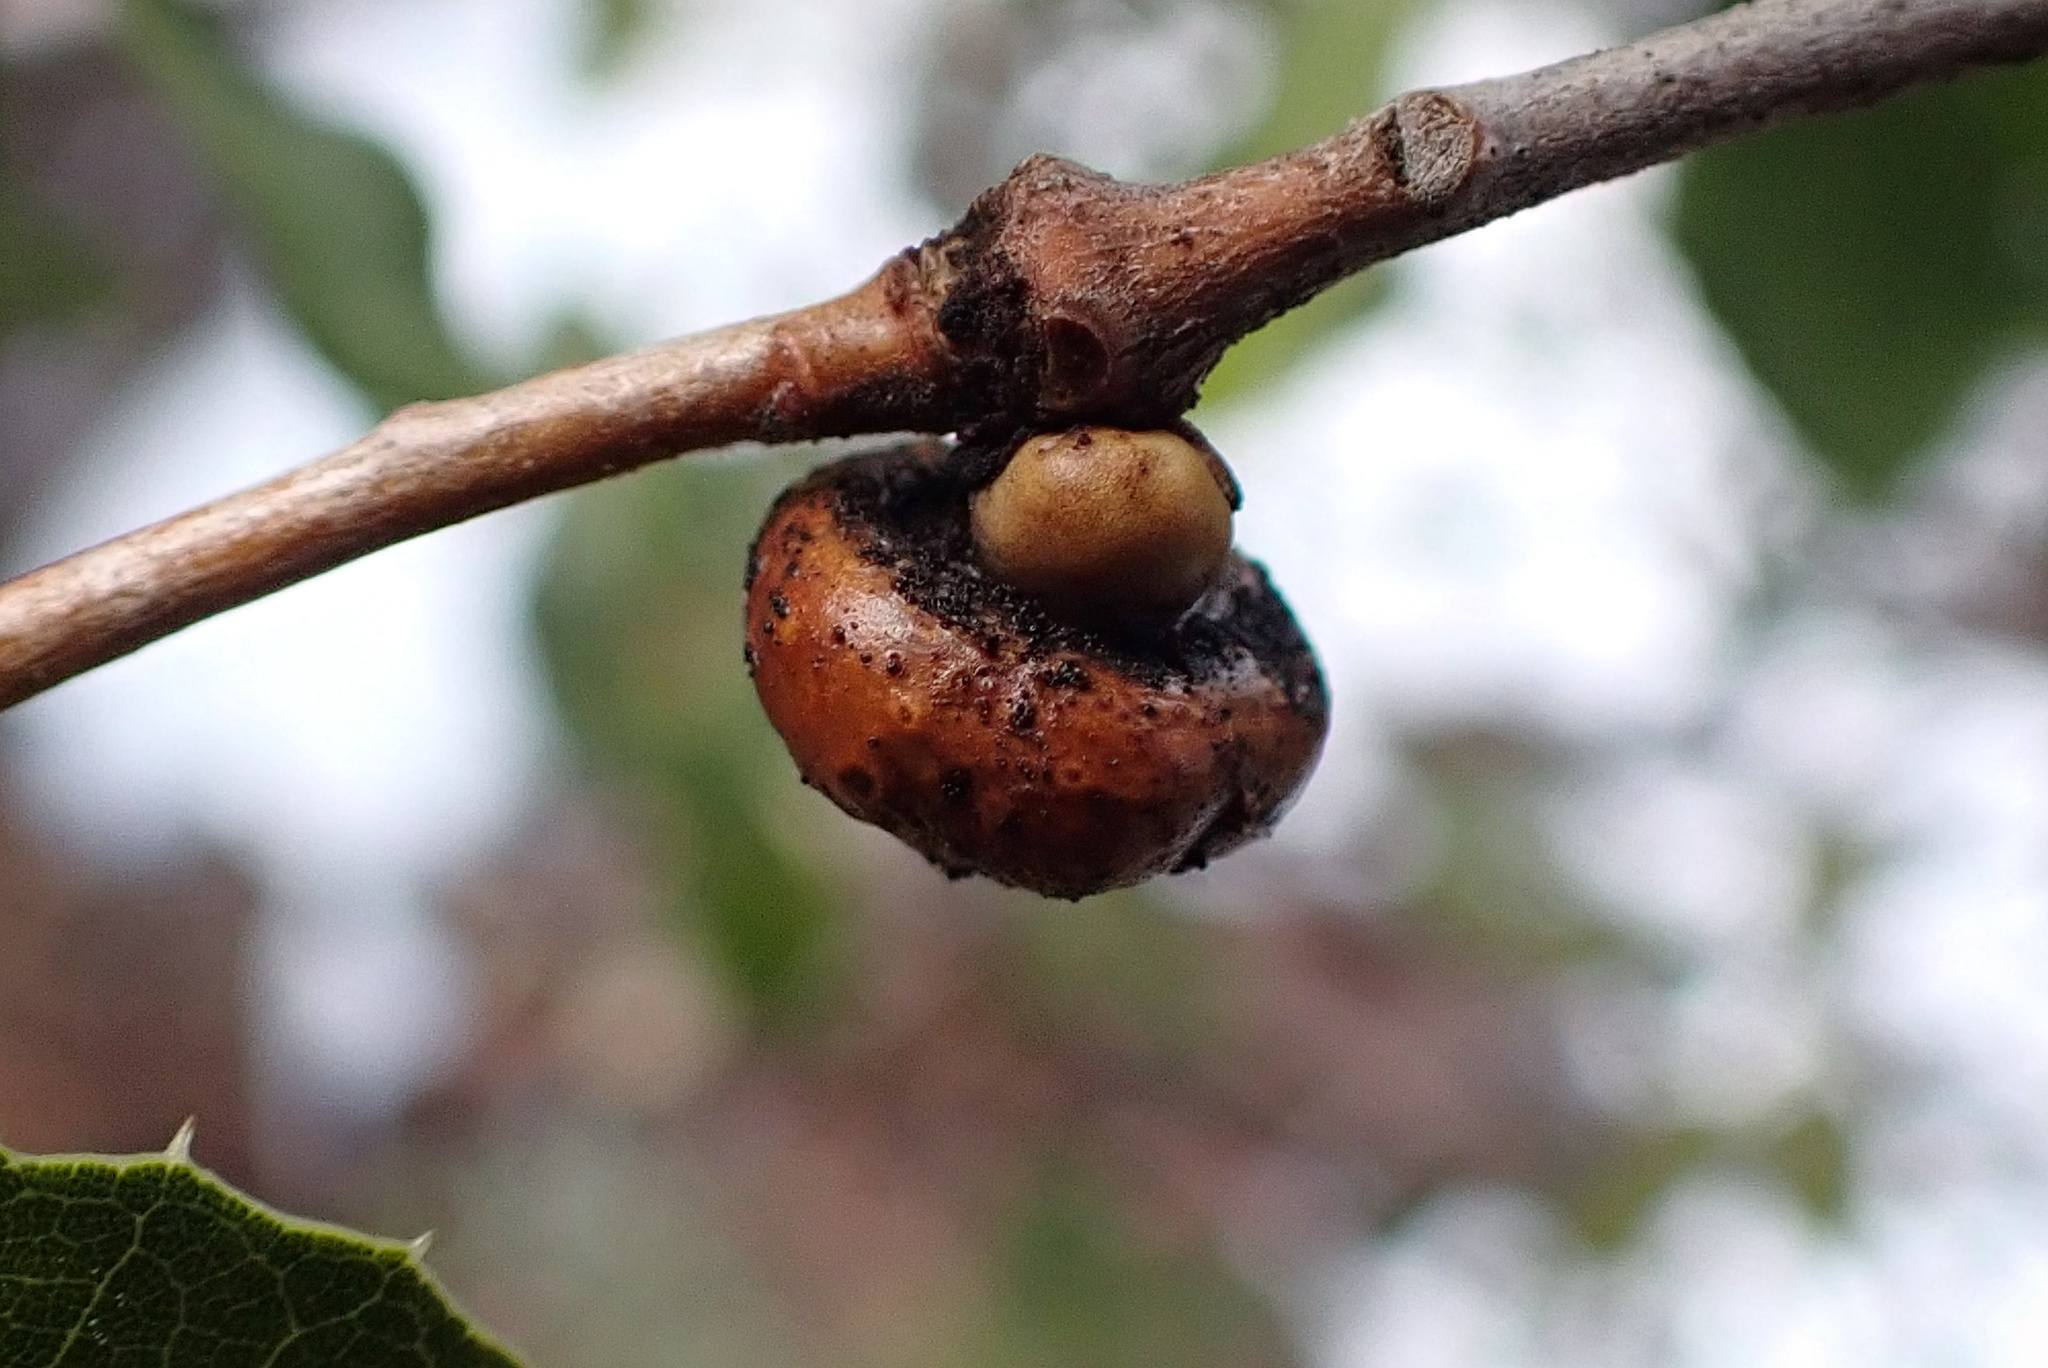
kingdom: Animalia
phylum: Arthropoda
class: Insecta
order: Hymenoptera
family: Cynipidae
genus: Heteroecus
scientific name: Heteroecus
